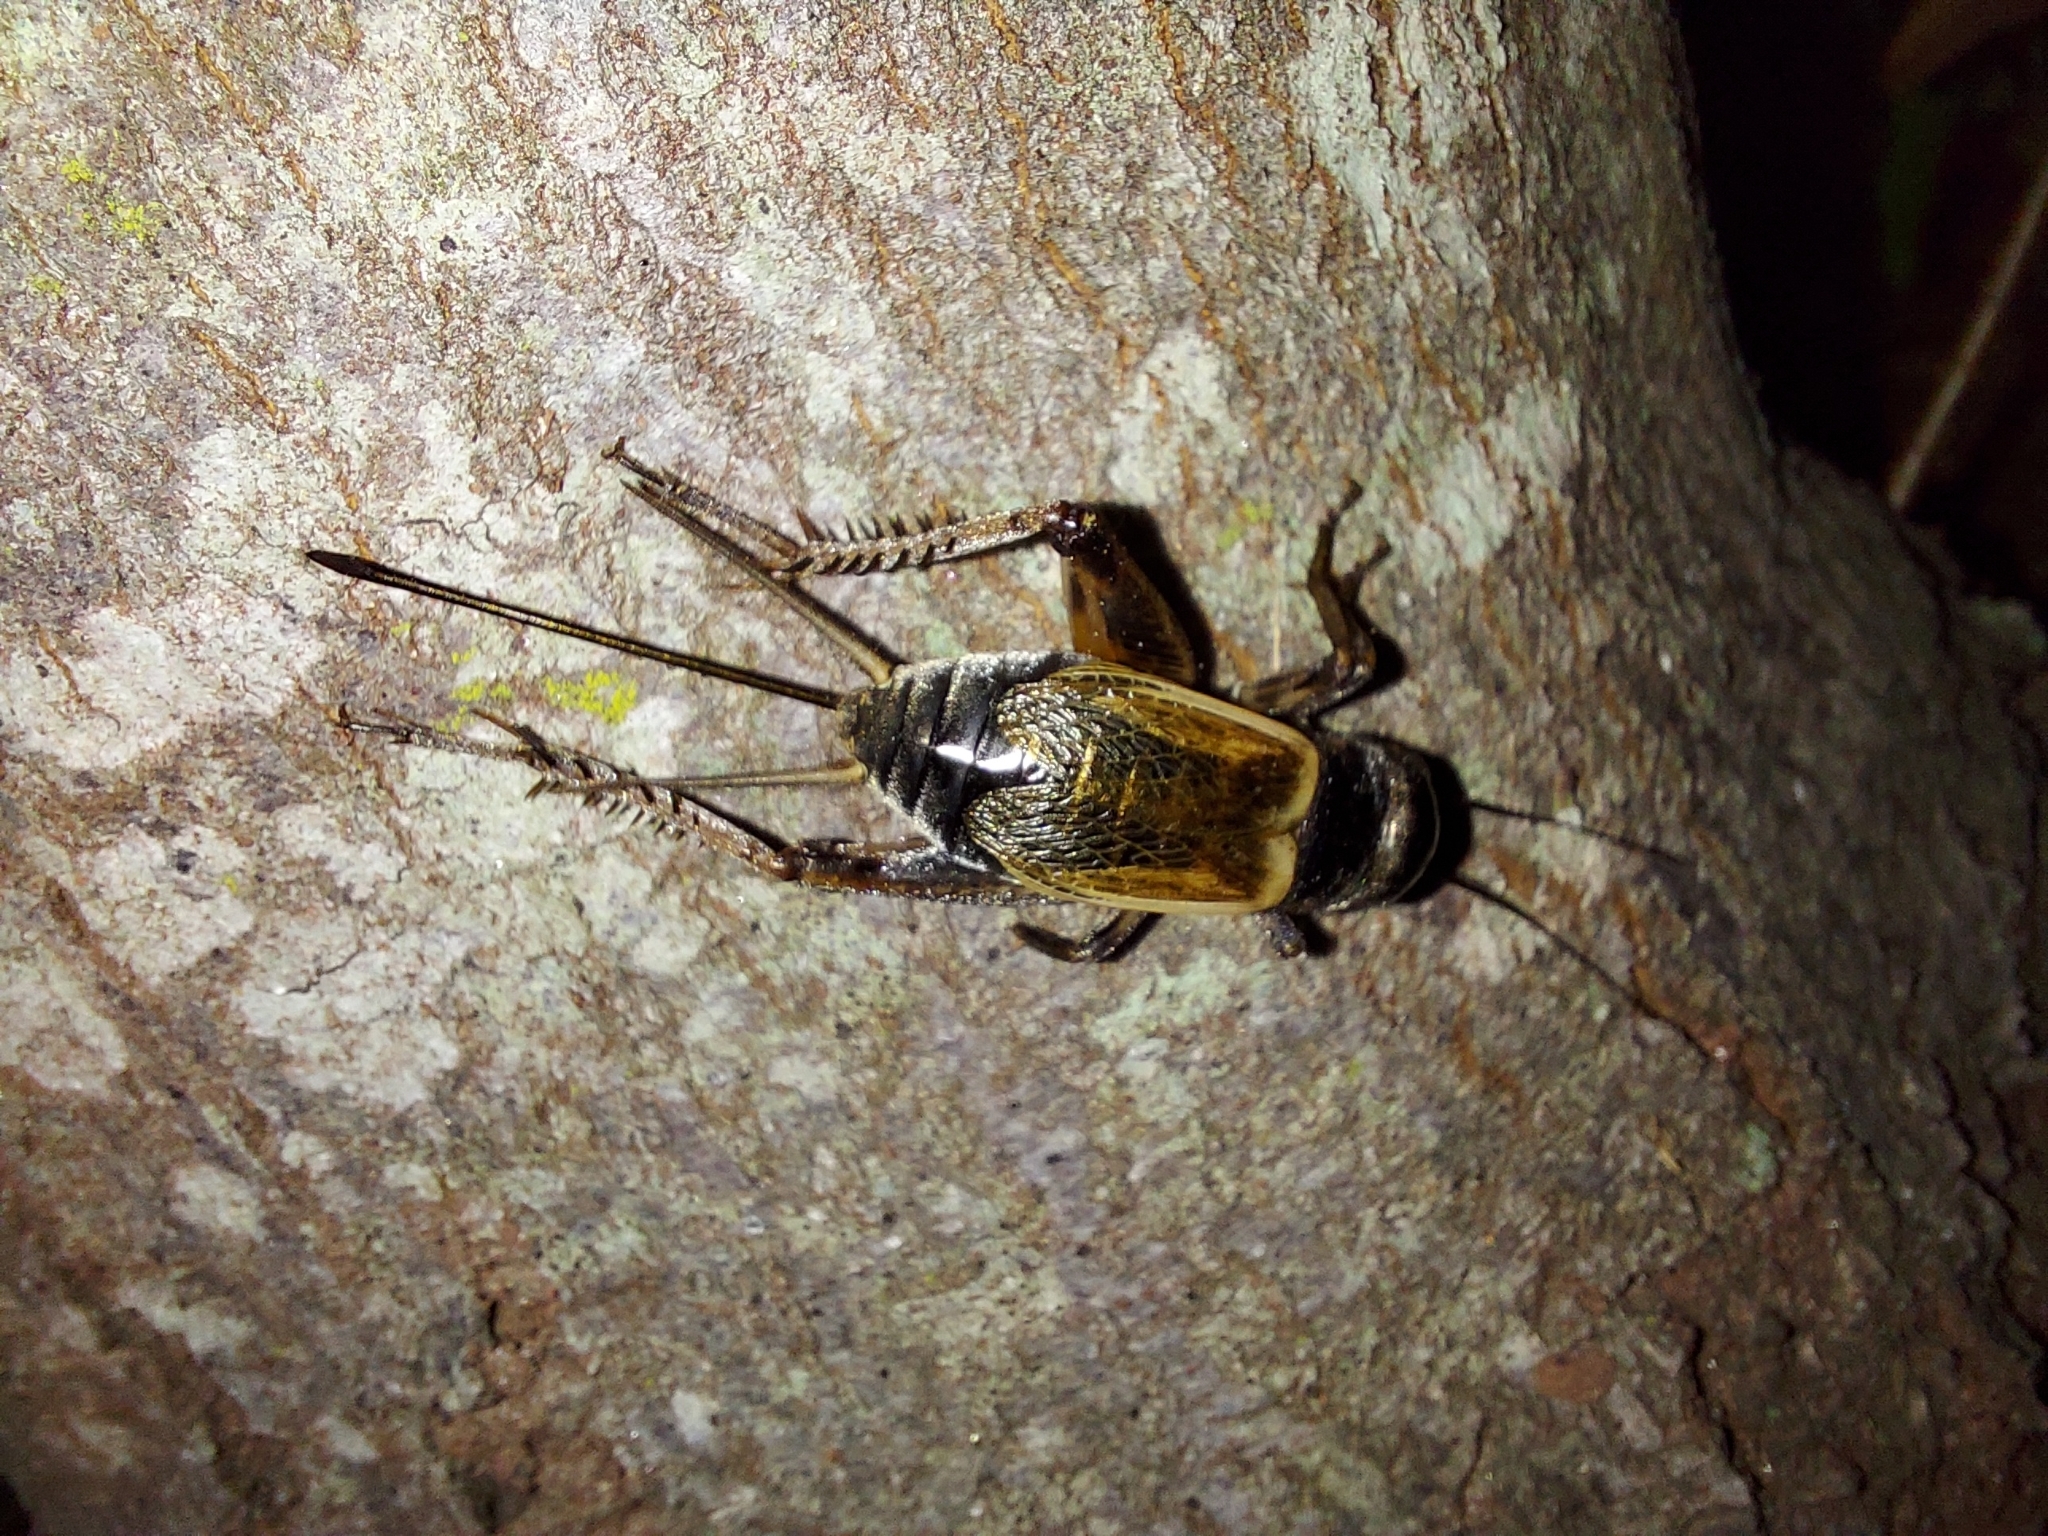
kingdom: Animalia
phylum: Arthropoda
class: Insecta
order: Orthoptera
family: Gryllidae
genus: Gryllus
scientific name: Gryllus firmus
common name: Sand field cricket
